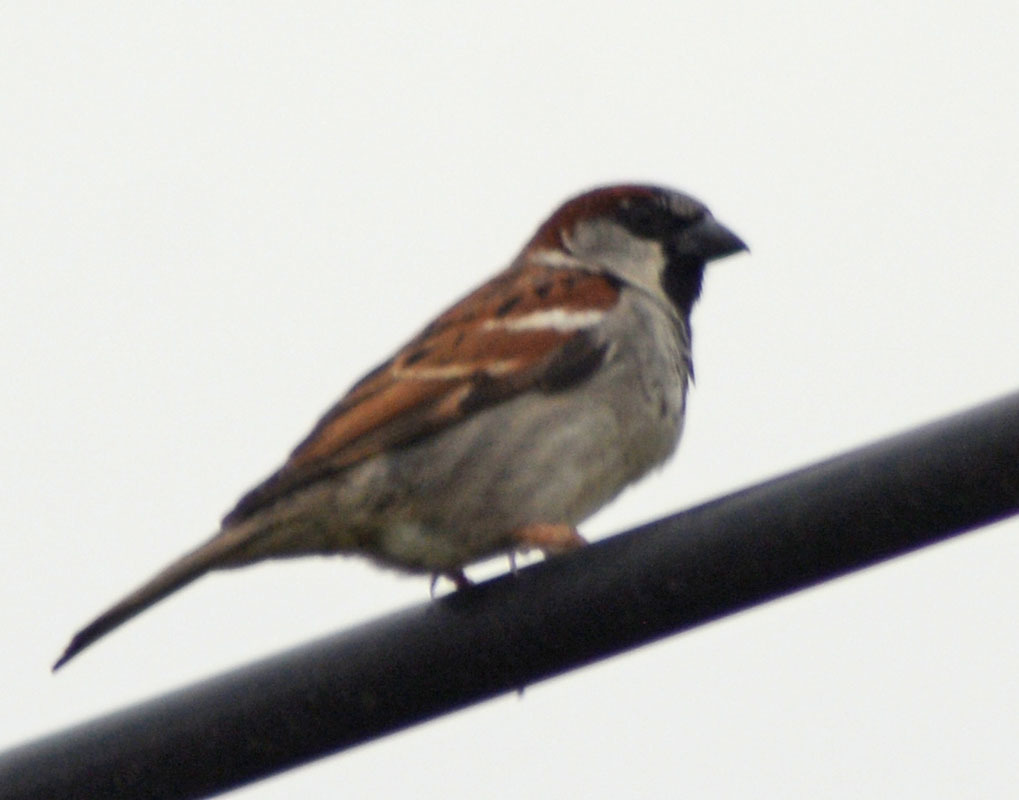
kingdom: Animalia
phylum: Chordata
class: Aves
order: Passeriformes
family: Passeridae
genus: Passer
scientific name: Passer domesticus
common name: House sparrow
